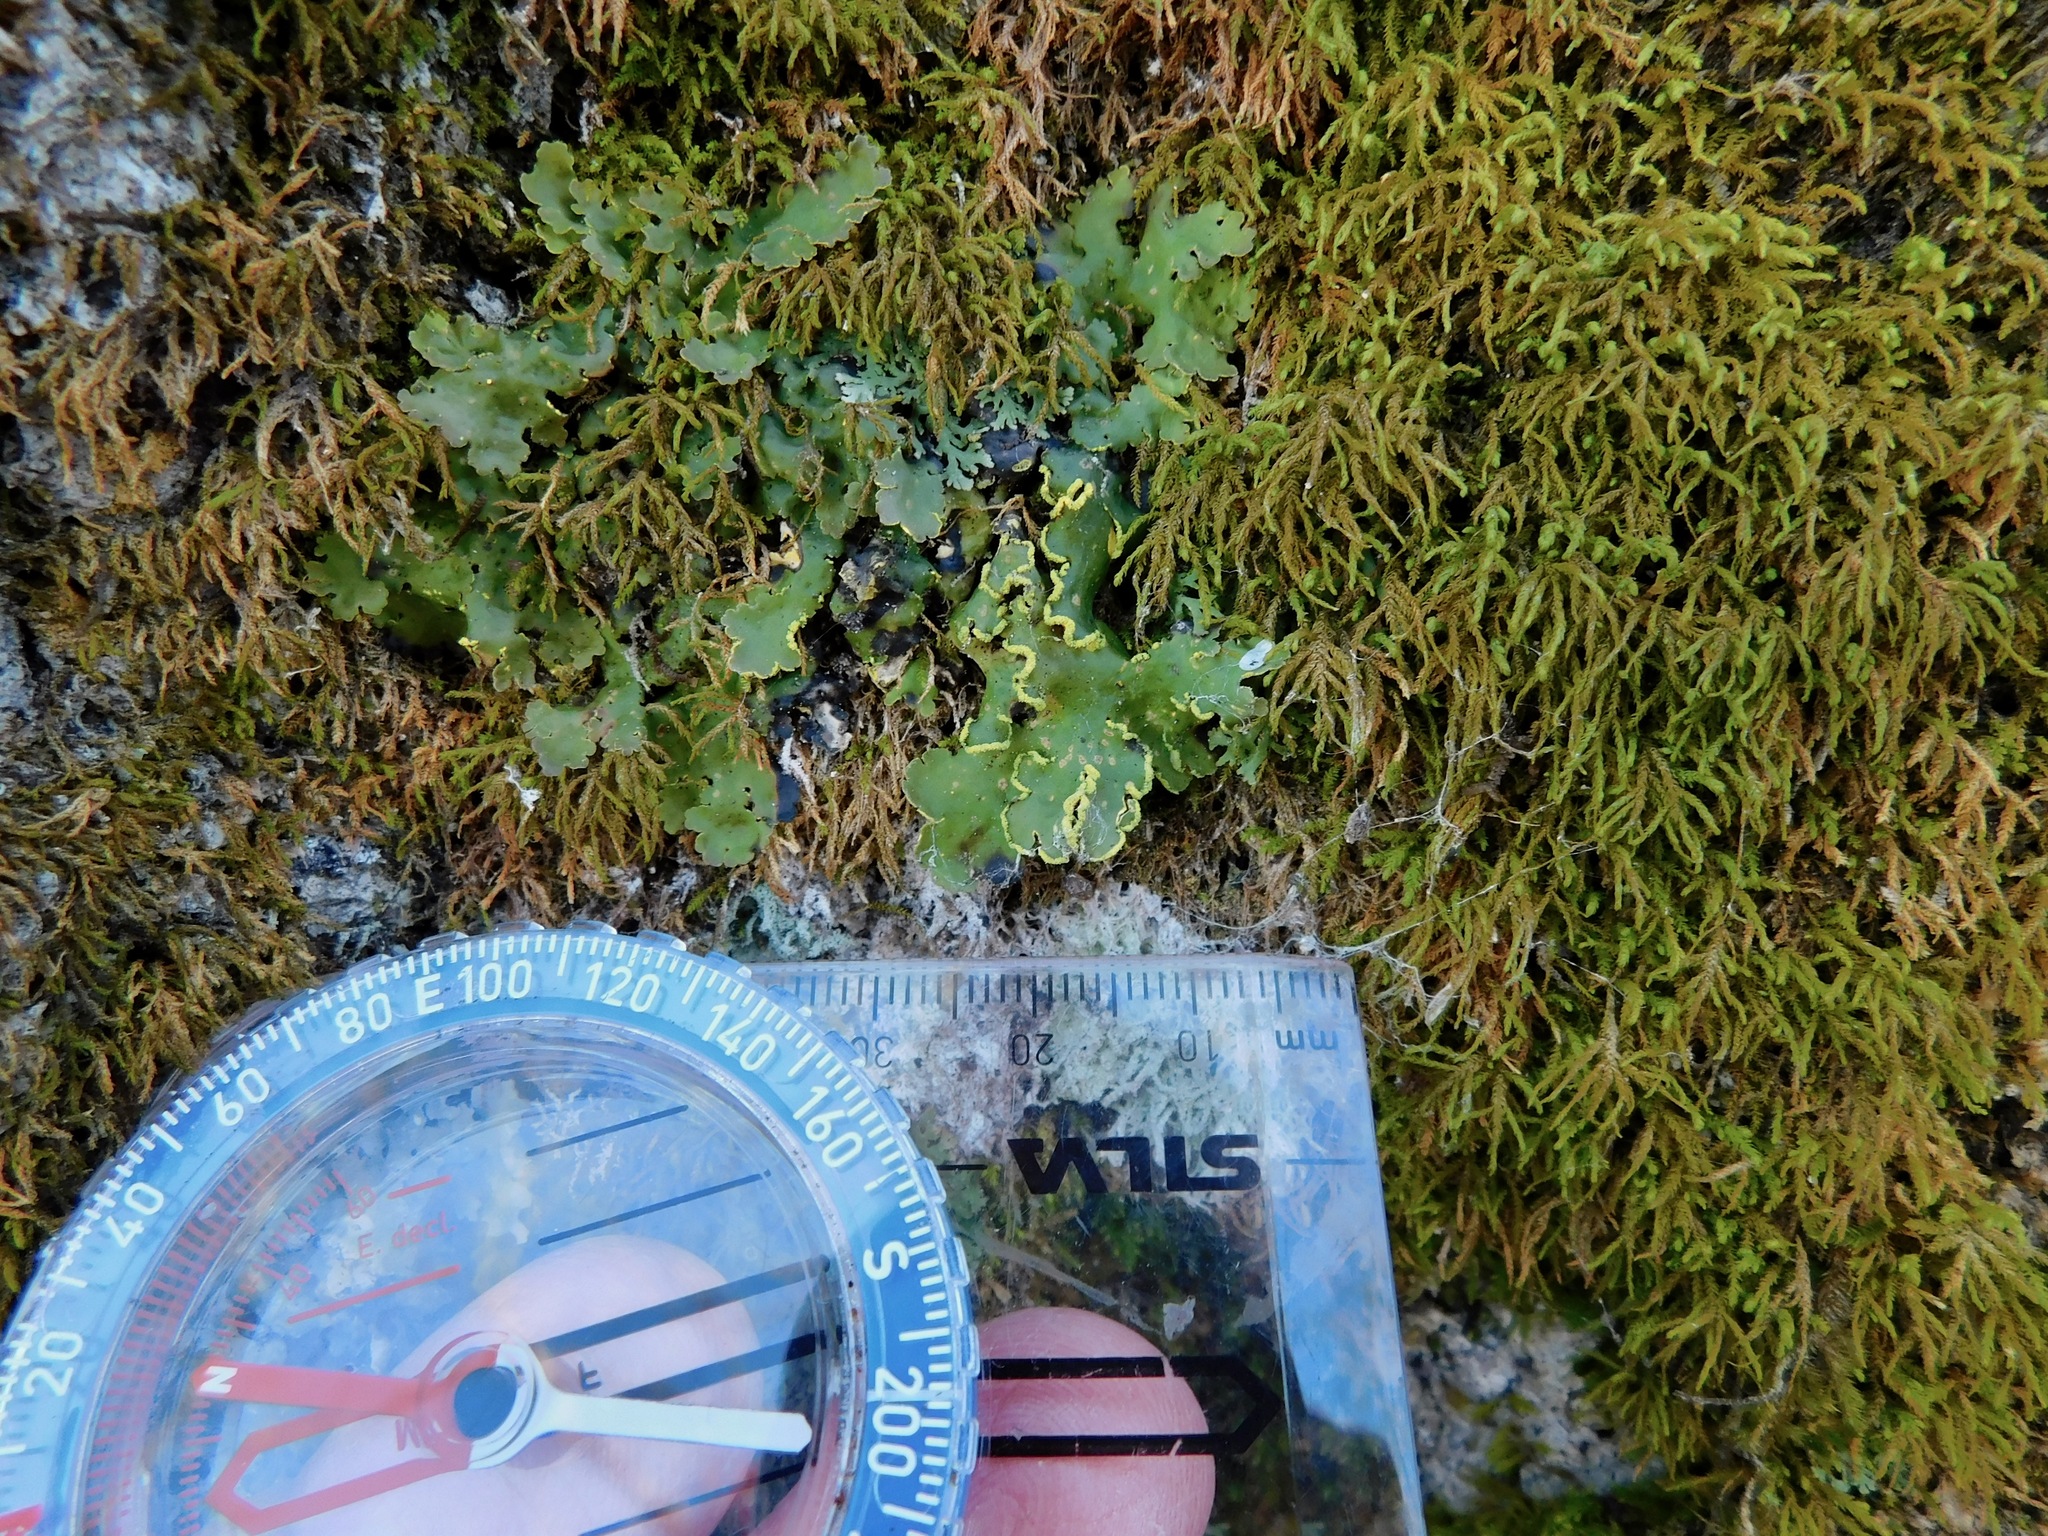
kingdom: Fungi
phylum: Ascomycota
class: Lecanoromycetes
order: Peltigerales
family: Lobariaceae
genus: Pseudocyphellaria
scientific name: Pseudocyphellaria aurata
